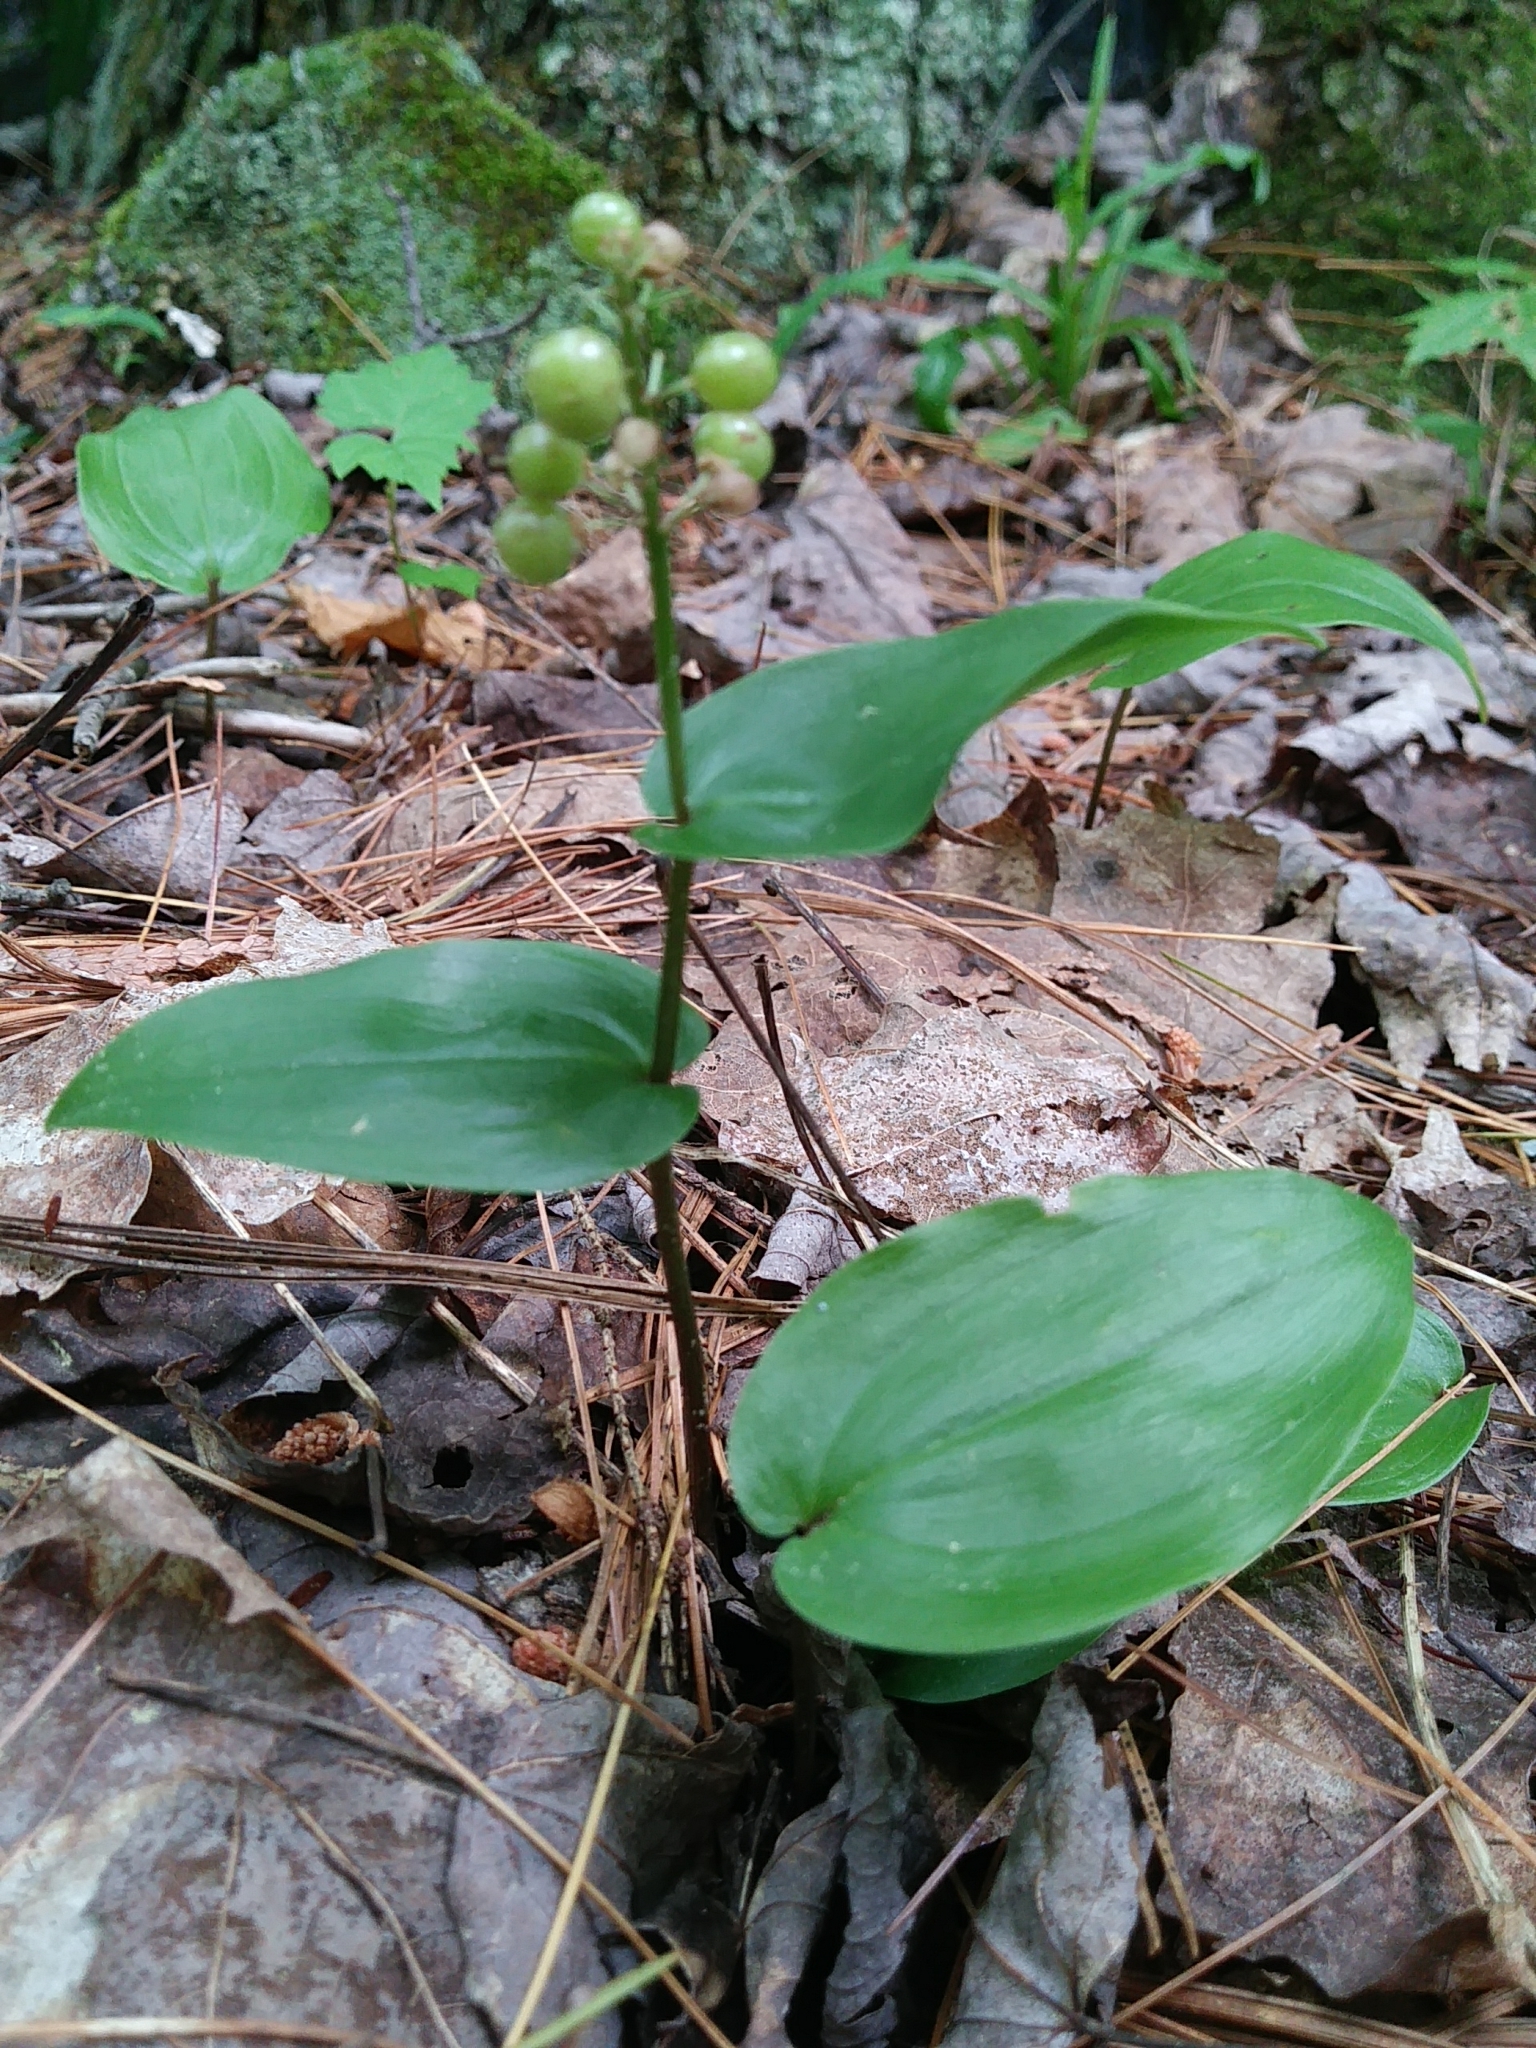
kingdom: Plantae
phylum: Tracheophyta
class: Liliopsida
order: Asparagales
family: Asparagaceae
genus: Maianthemum
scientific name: Maianthemum canadense
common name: False lily-of-the-valley
